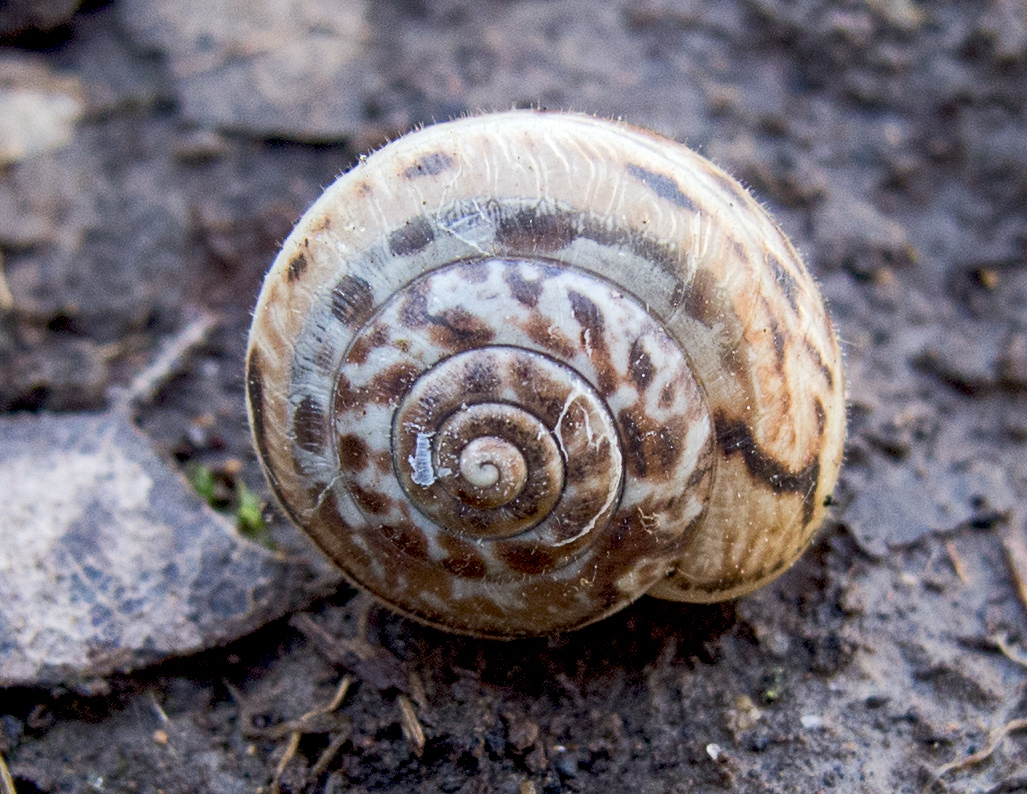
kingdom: Animalia
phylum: Mollusca
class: Gastropoda
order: Stylommatophora
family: Hygromiidae
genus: Monacha
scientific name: Monacha ovularis
